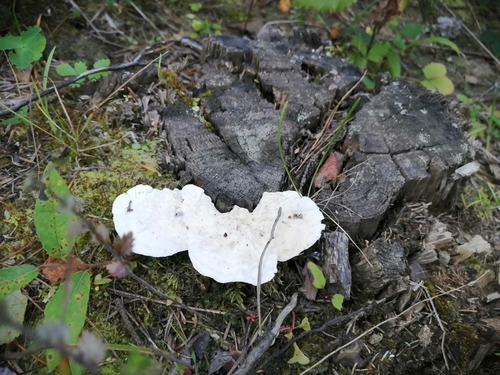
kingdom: Fungi
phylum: Basidiomycota
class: Agaricomycetes
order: Polyporales
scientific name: Polyporales
